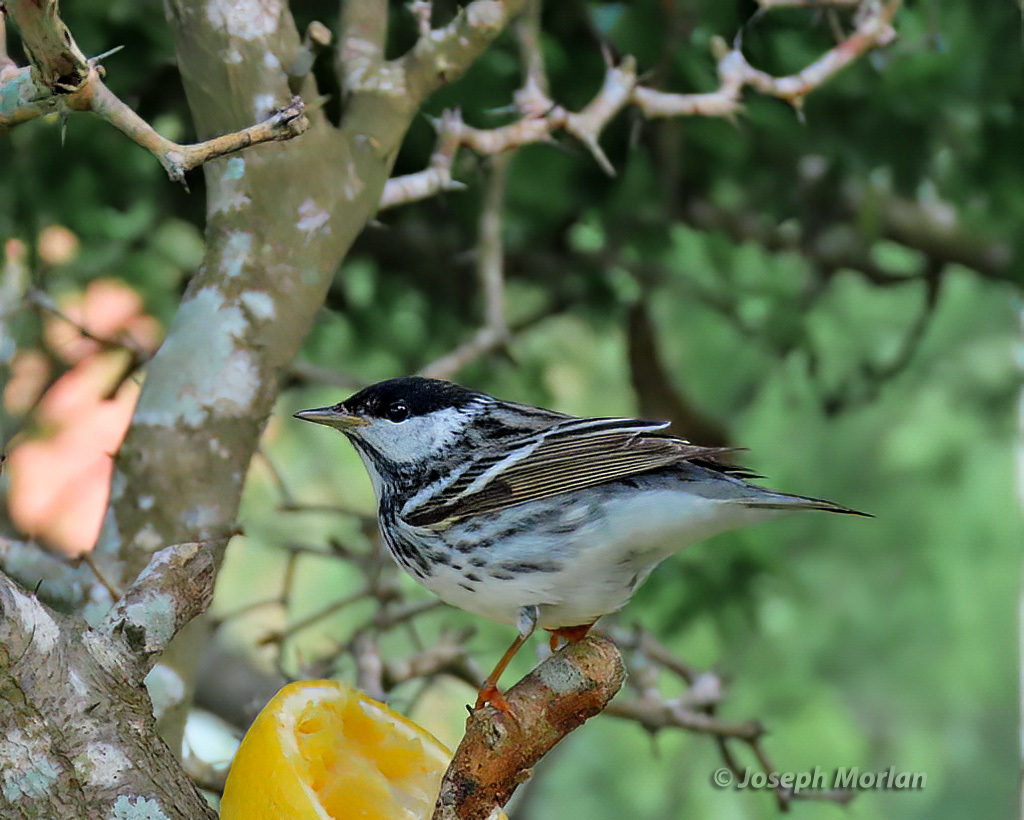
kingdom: Animalia
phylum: Chordata
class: Aves
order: Passeriformes
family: Parulidae
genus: Setophaga
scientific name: Setophaga striata
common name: Blackpoll warbler
